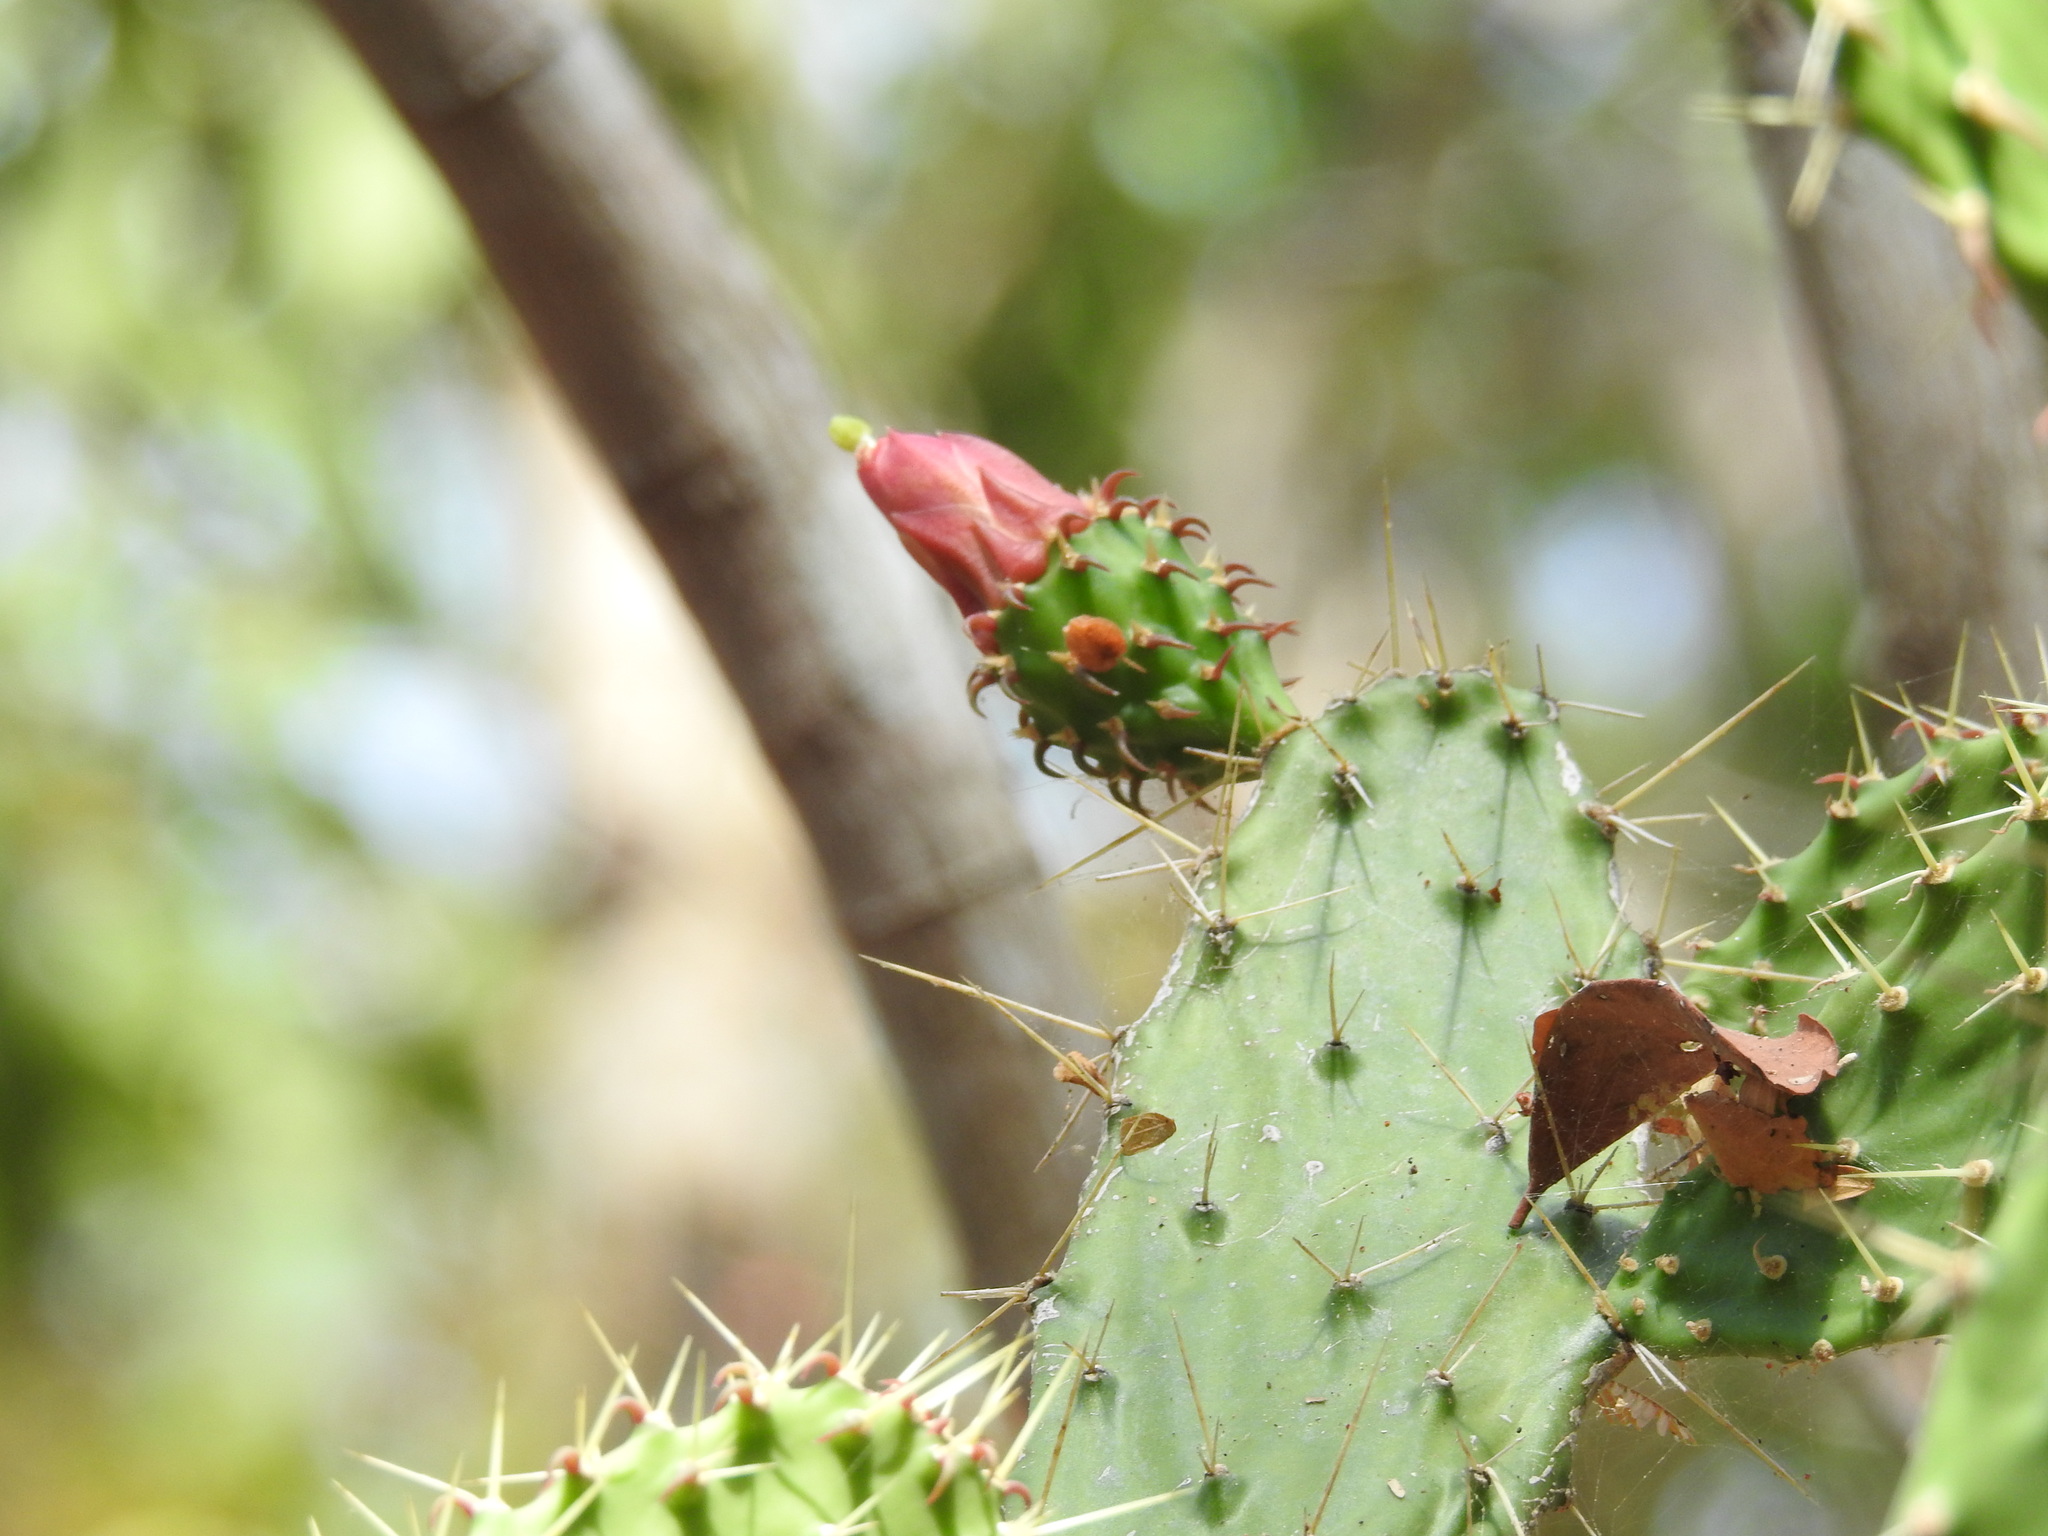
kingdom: Plantae
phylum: Tracheophyta
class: Magnoliopsida
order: Caryophyllales
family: Cactaceae
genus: Opuntia
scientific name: Opuntia inaperta
